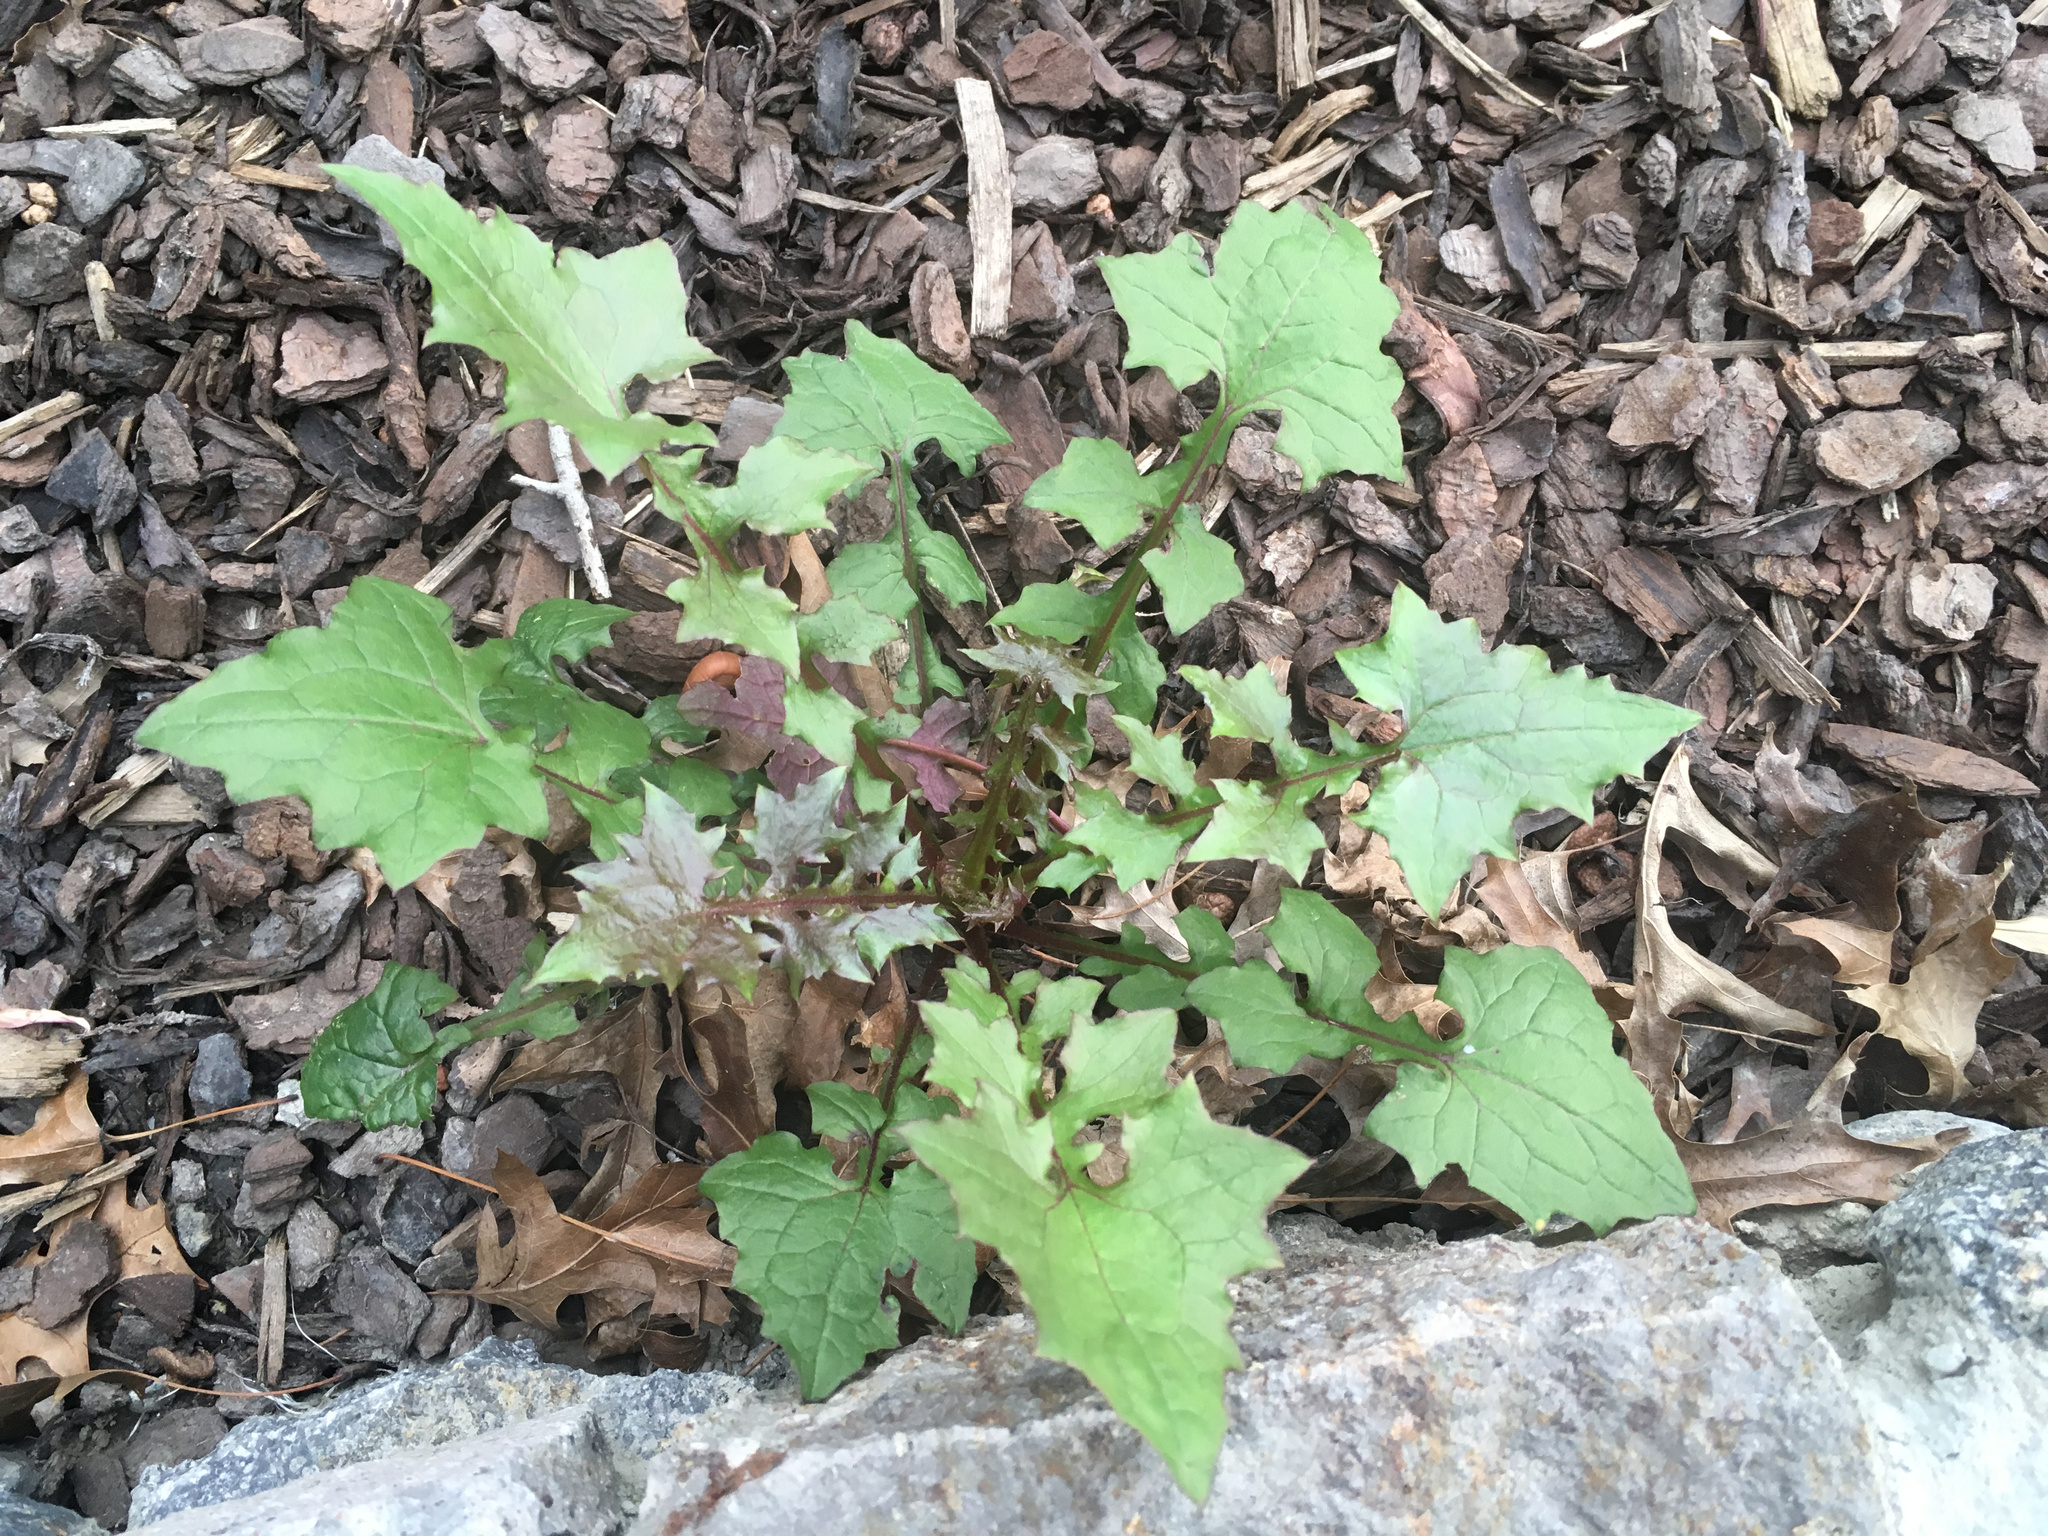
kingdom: Plantae
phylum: Tracheophyta
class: Magnoliopsida
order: Asterales
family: Asteraceae
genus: Mycelis
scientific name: Mycelis muralis
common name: Wall lettuce
